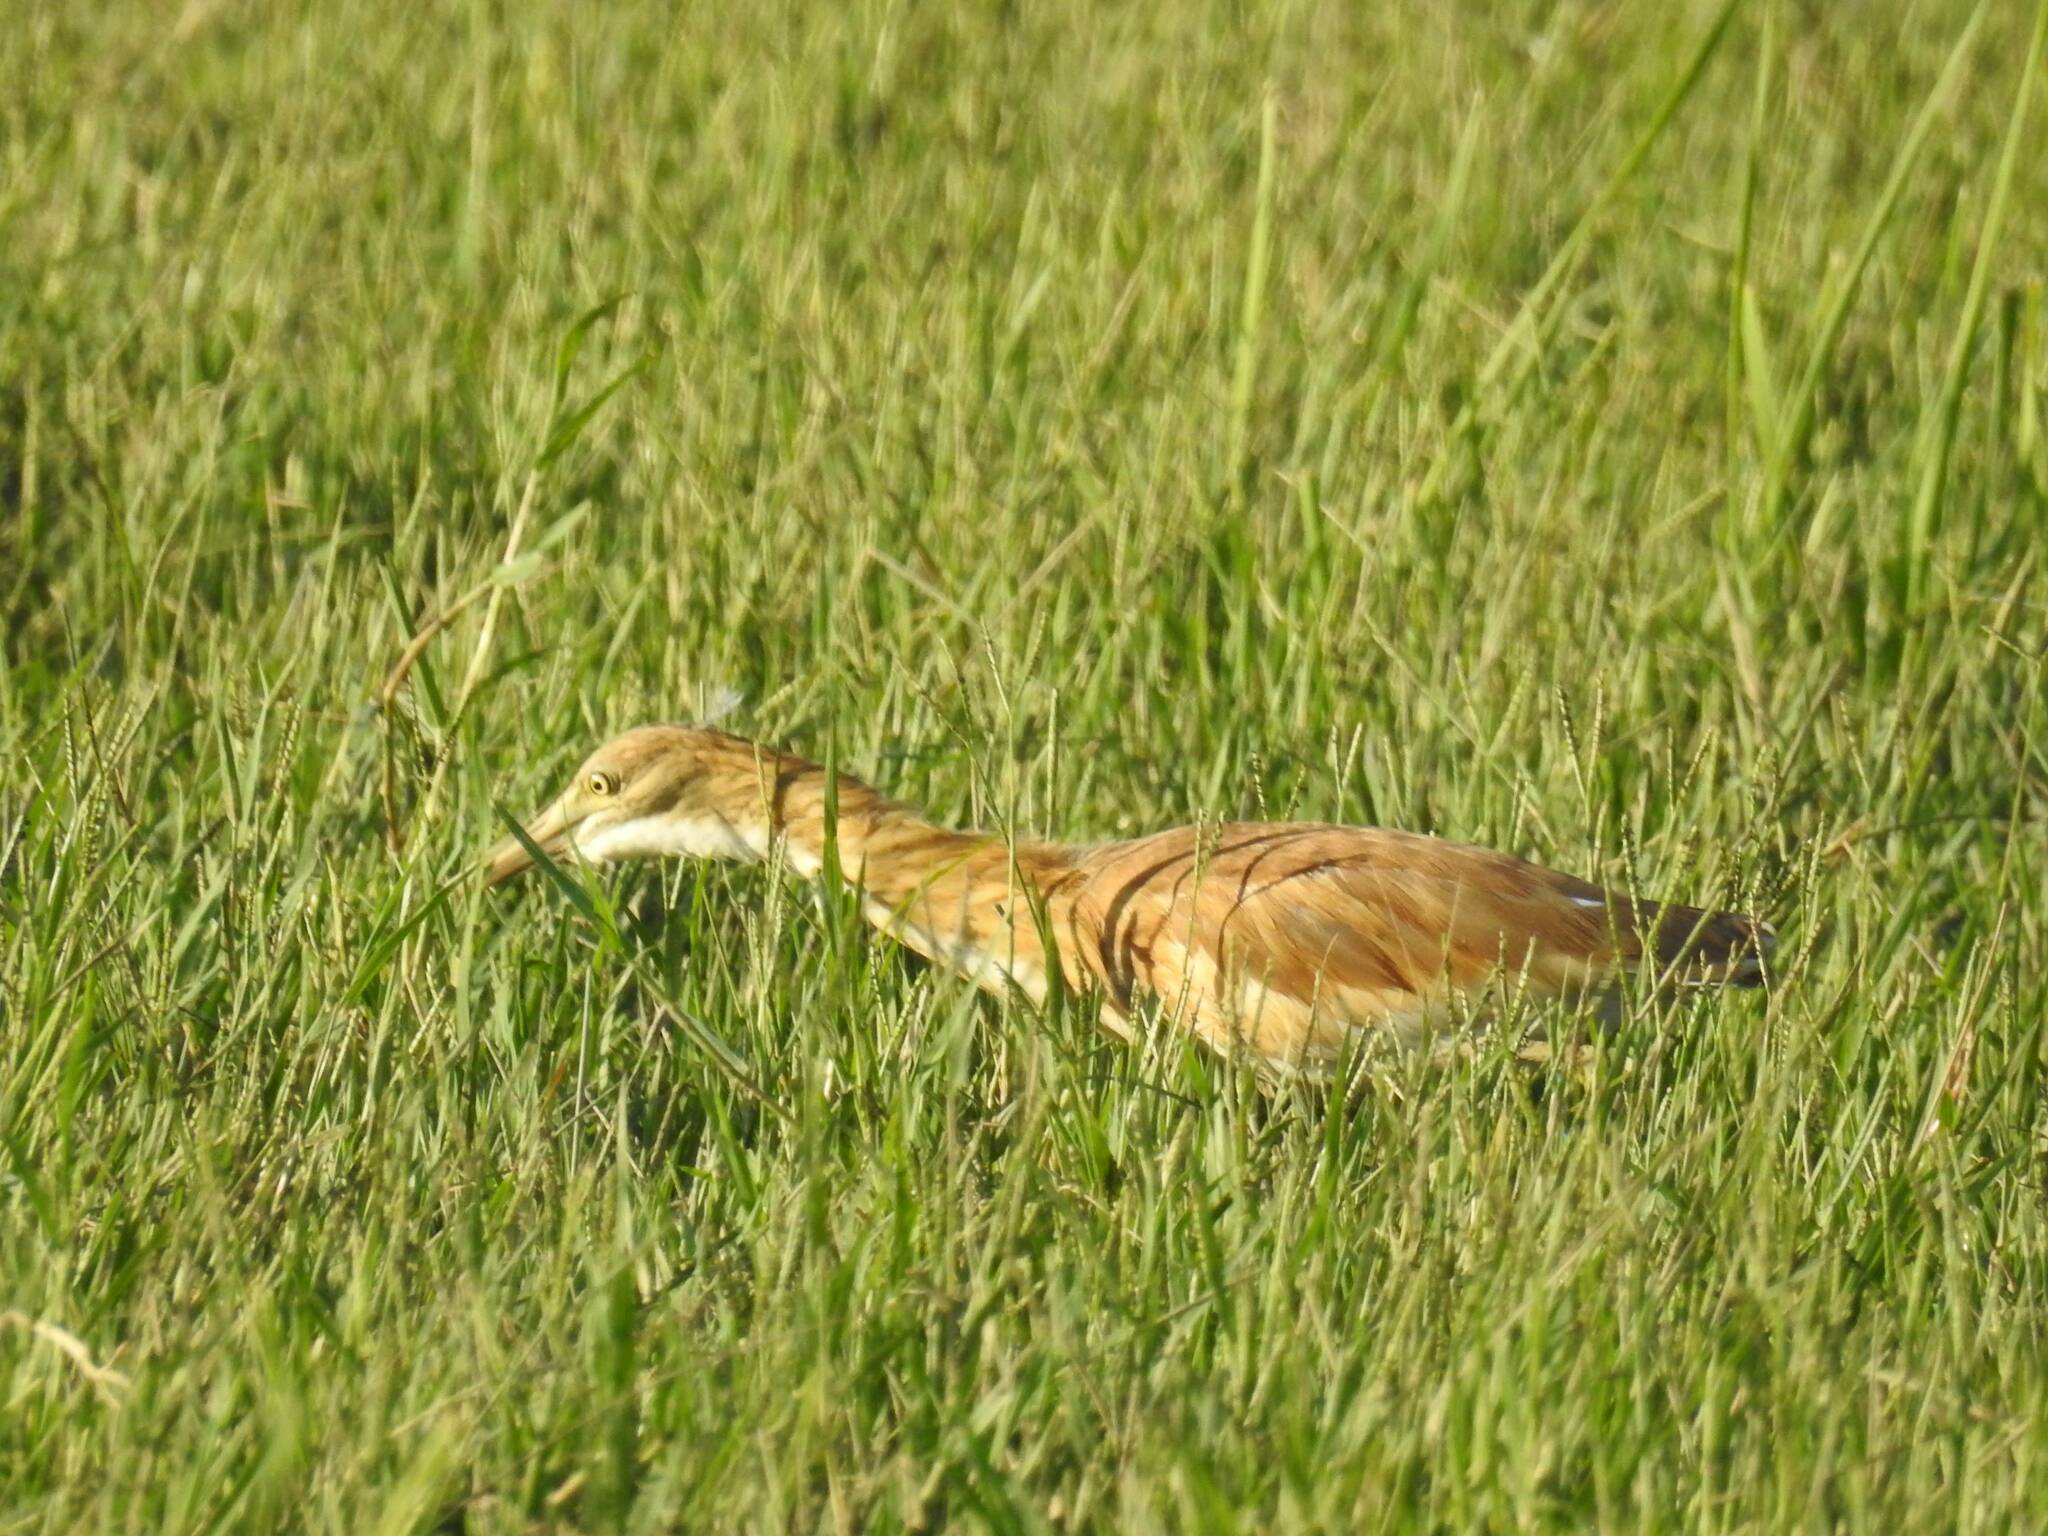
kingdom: Animalia
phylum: Chordata
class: Aves
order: Pelecaniformes
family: Ardeidae
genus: Ardeola
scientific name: Ardeola ralloides
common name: Squacco heron
